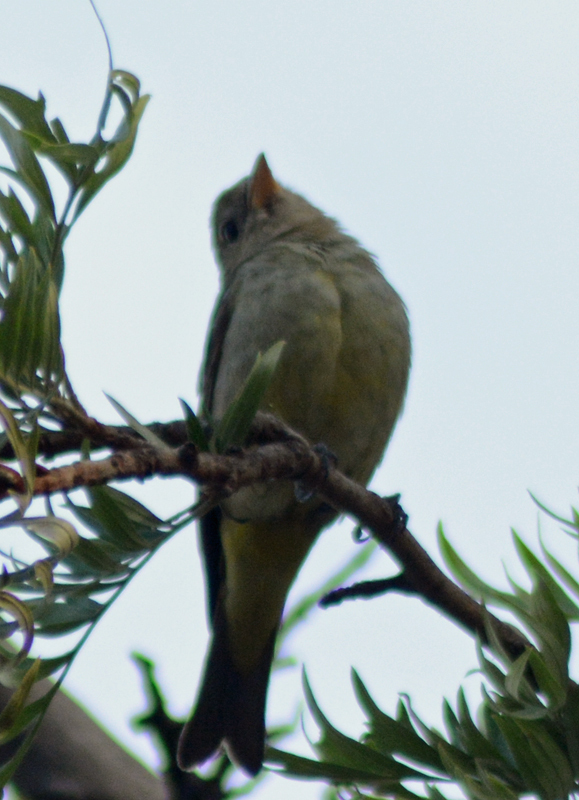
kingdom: Animalia
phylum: Chordata
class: Aves
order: Passeriformes
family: Cardinalidae
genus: Piranga
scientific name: Piranga ludoviciana
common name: Western tanager
